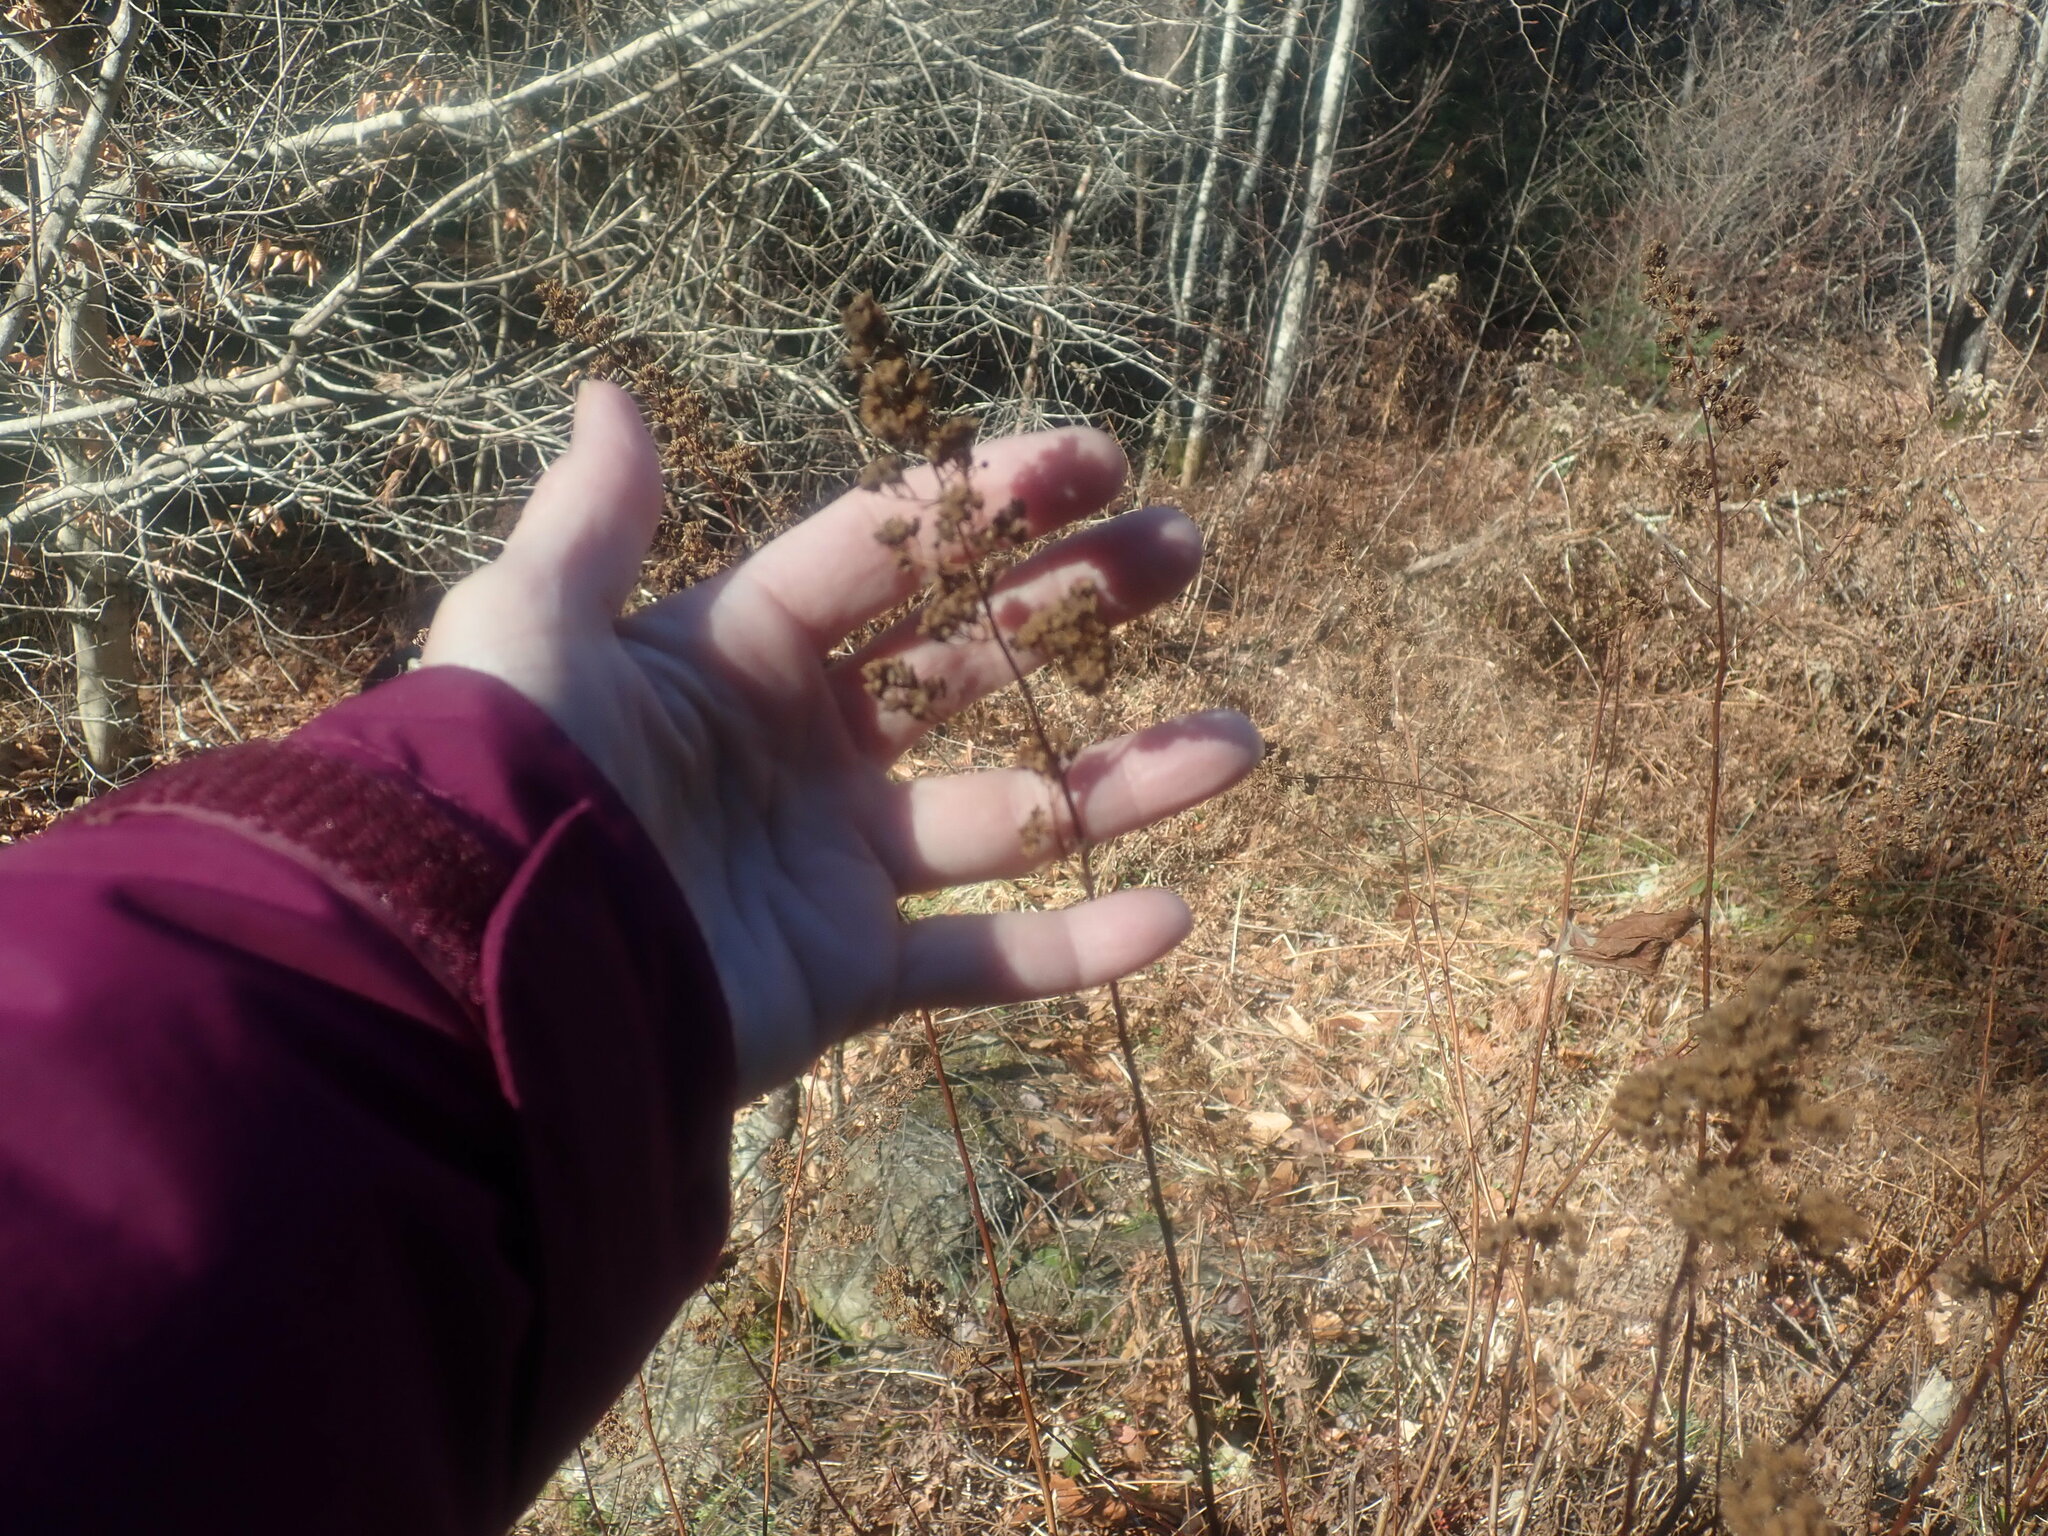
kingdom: Plantae
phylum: Tracheophyta
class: Magnoliopsida
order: Rosales
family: Rosaceae
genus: Spiraea
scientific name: Spiraea alba
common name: Pale bridewort
